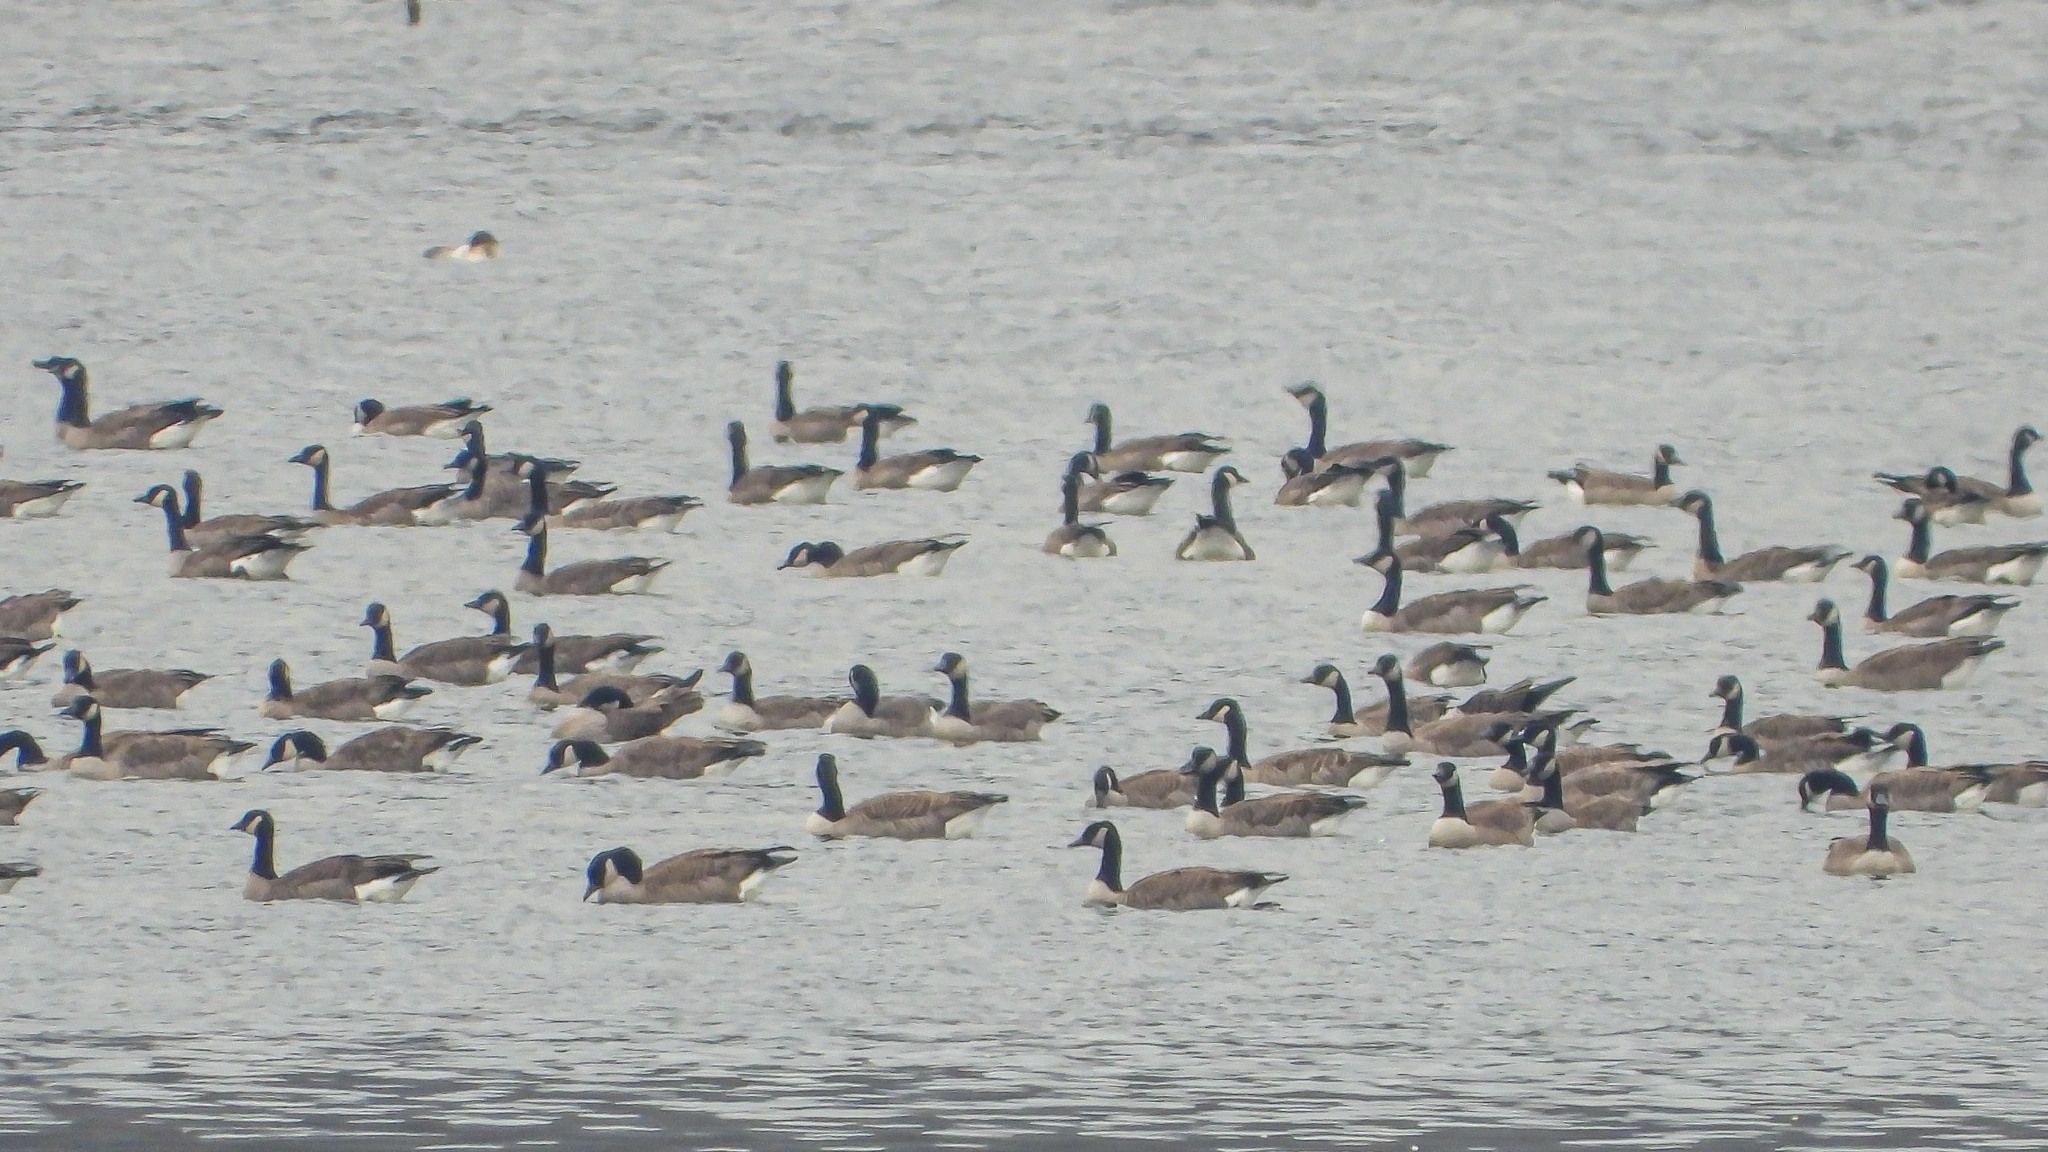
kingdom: Animalia
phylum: Chordata
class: Aves
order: Anseriformes
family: Anatidae
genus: Branta
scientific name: Branta canadensis
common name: Canada goose
